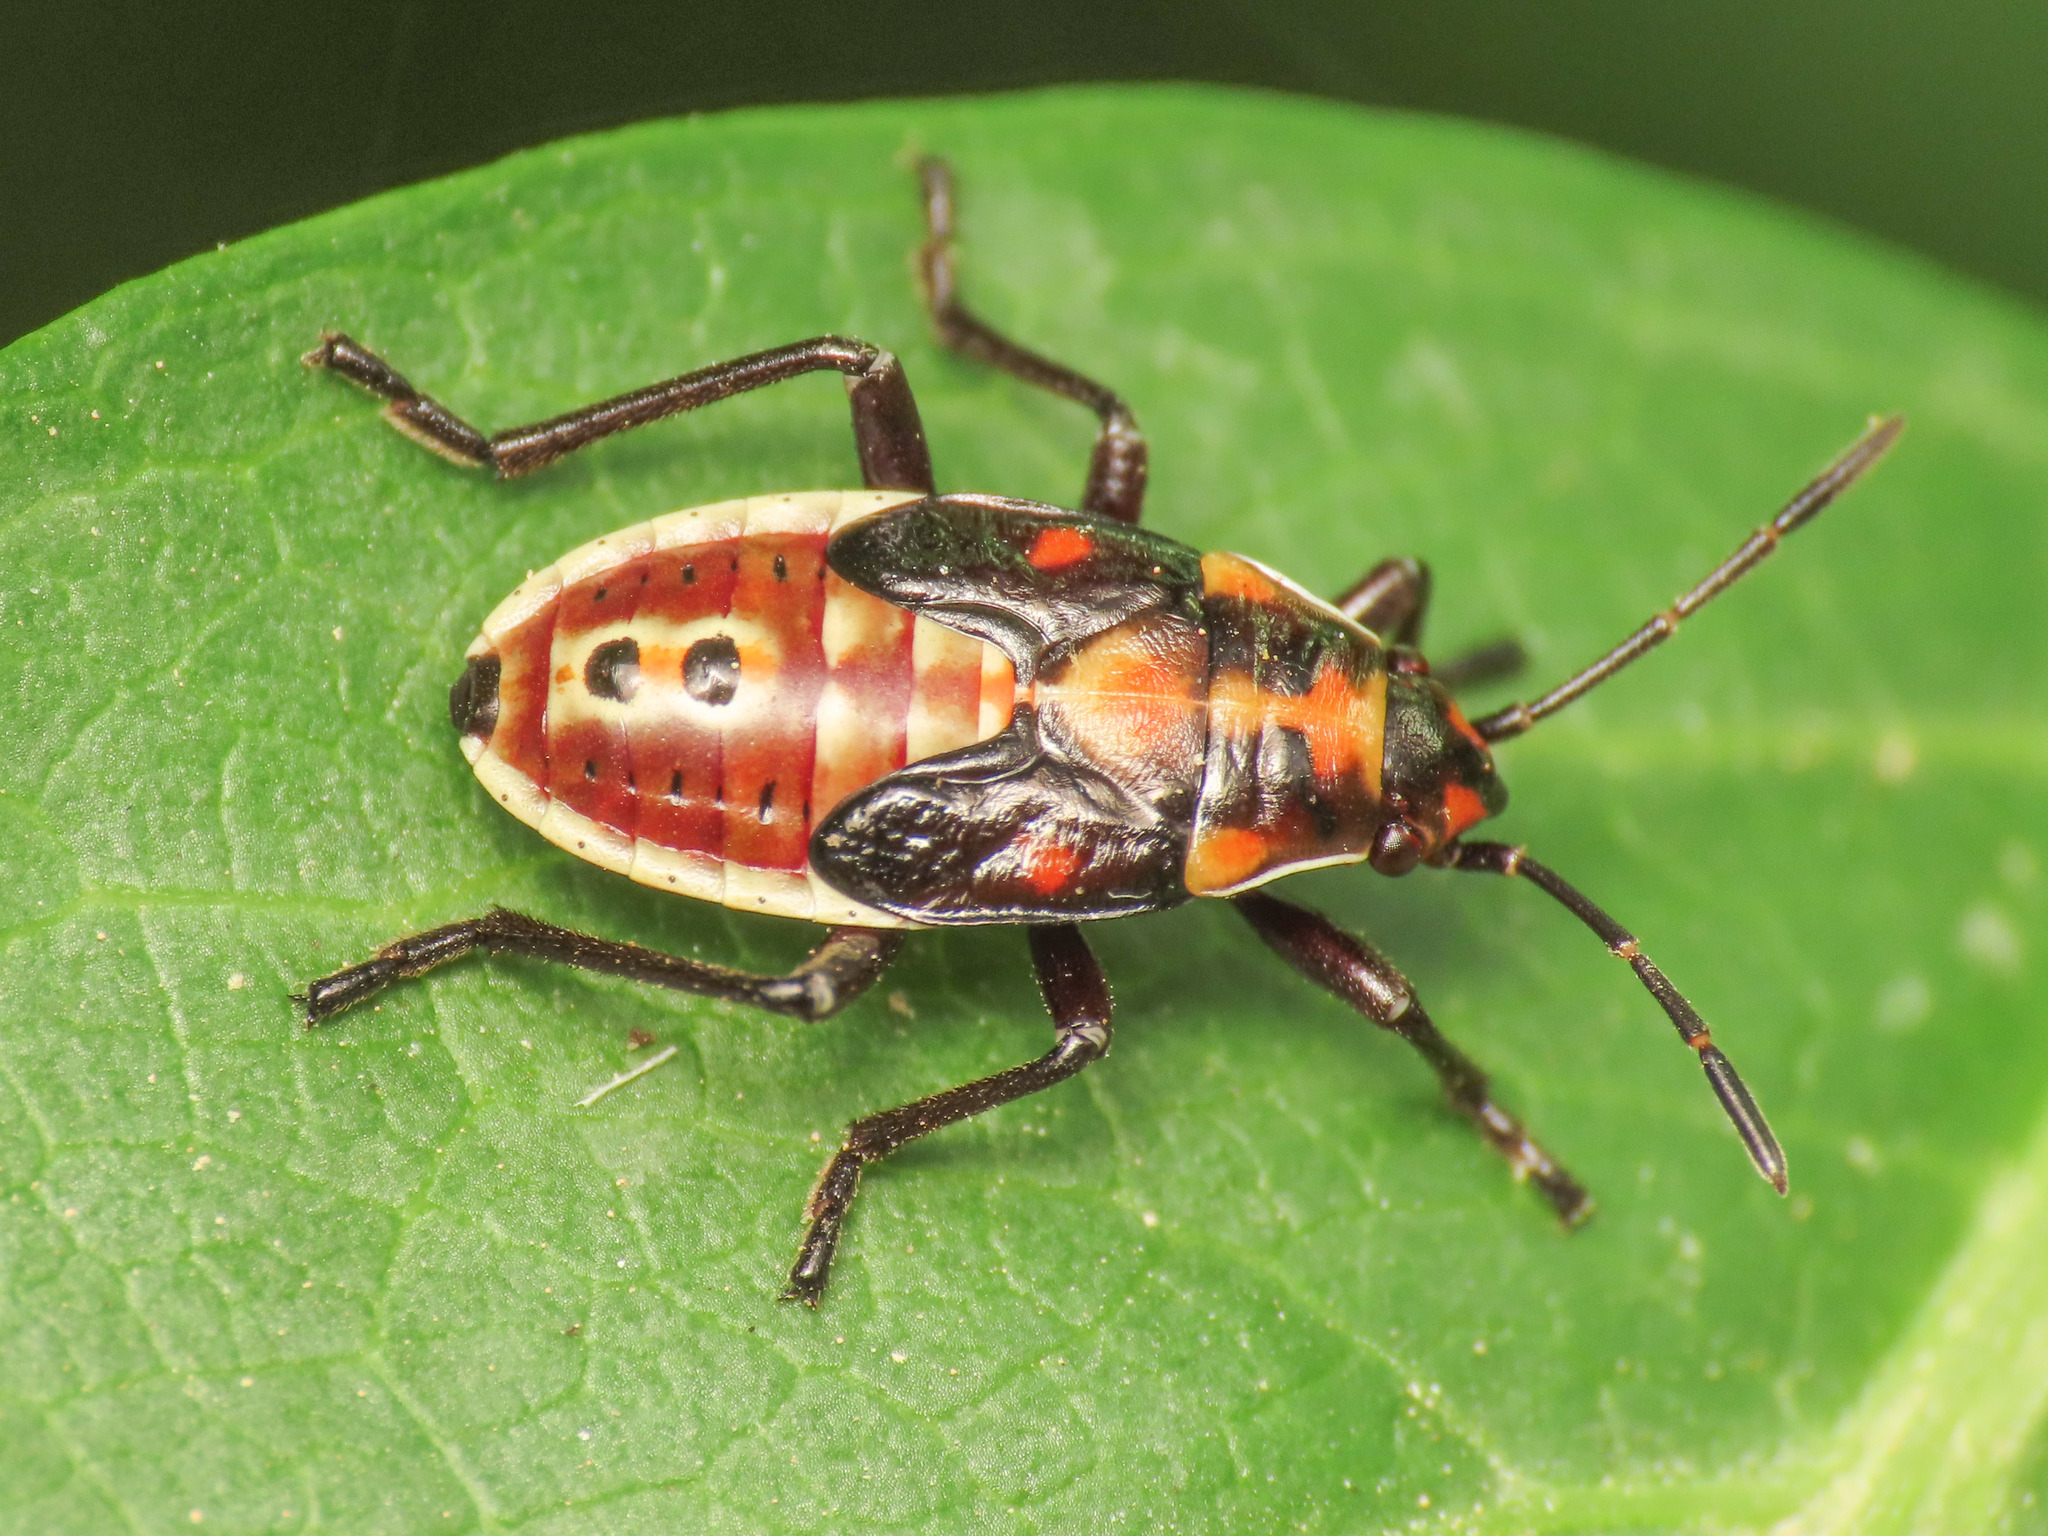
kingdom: Animalia
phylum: Arthropoda
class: Insecta
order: Hemiptera
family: Lygaeidae
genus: Spilostethus
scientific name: Spilostethus pandurus
